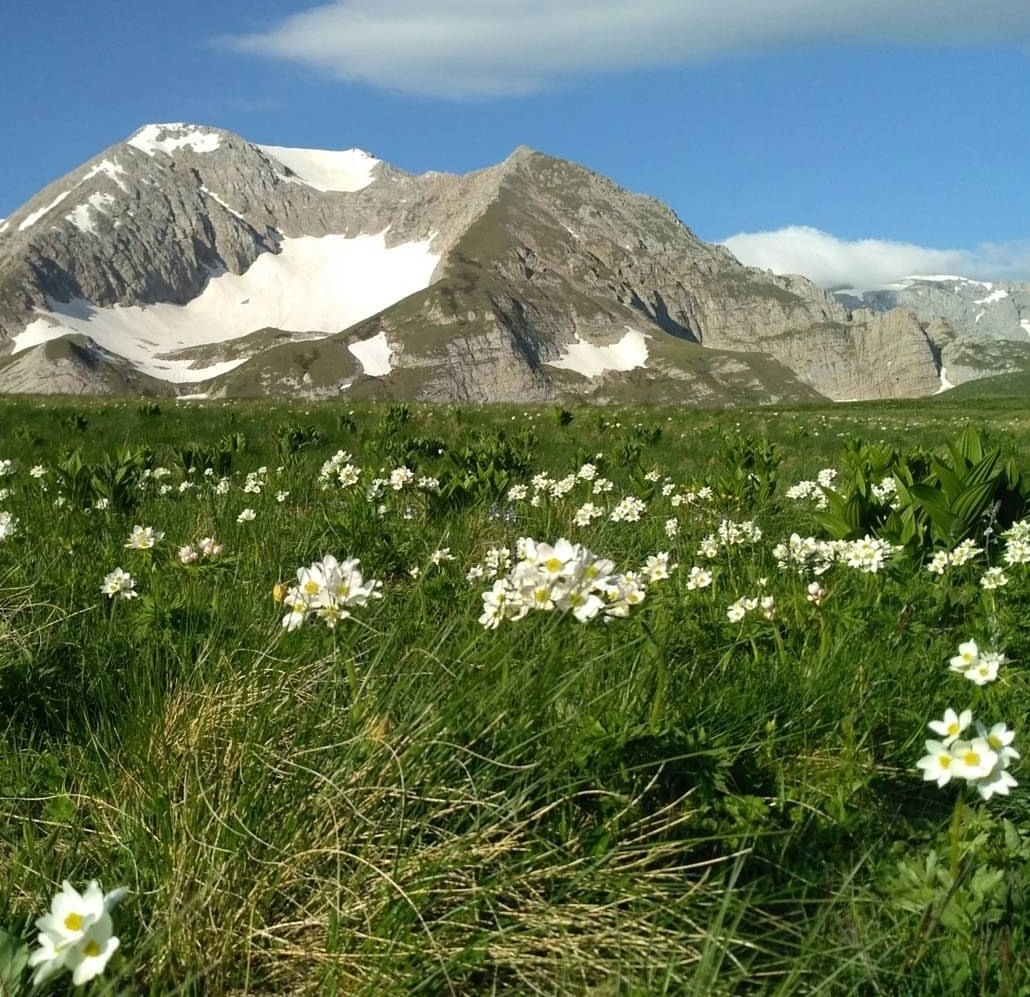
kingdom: Plantae
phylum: Tracheophyta
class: Magnoliopsida
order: Ranunculales
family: Ranunculaceae
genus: Anemonastrum
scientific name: Anemonastrum narcissiflorum
